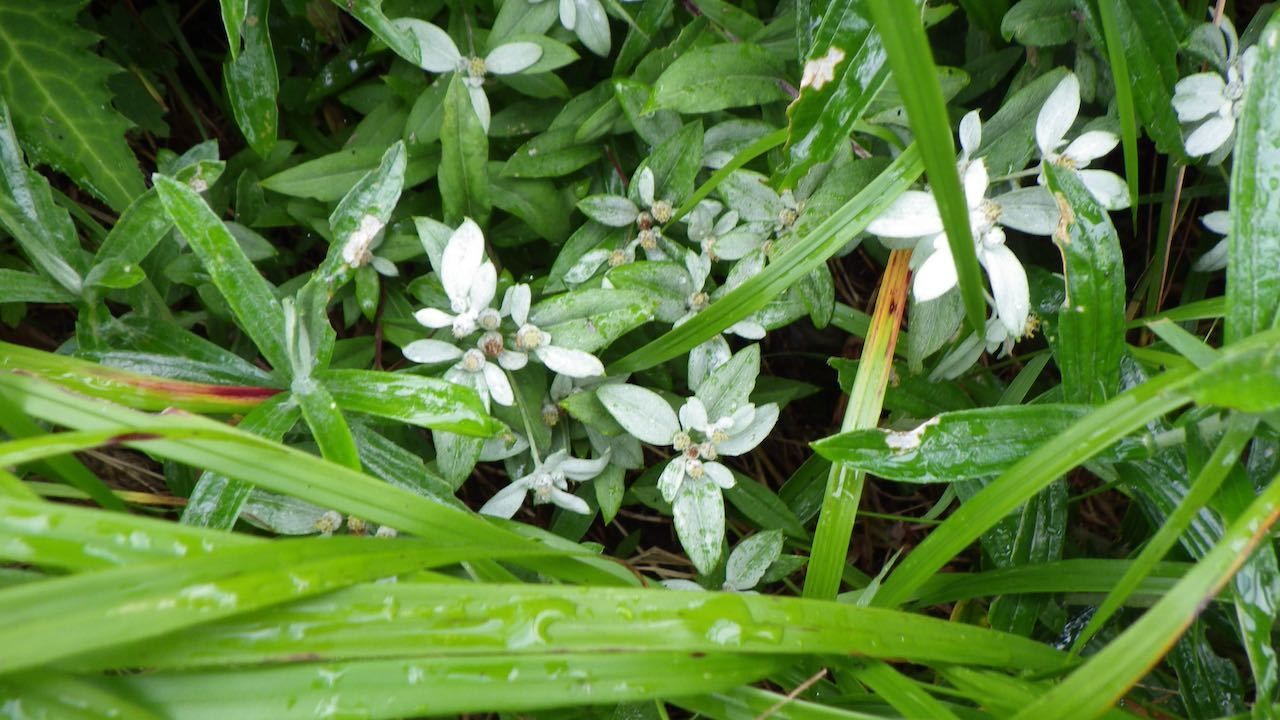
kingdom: Plantae
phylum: Tracheophyta
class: Magnoliopsida
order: Asterales
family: Asteraceae
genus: Leontopodium
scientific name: Leontopodium japonicum
